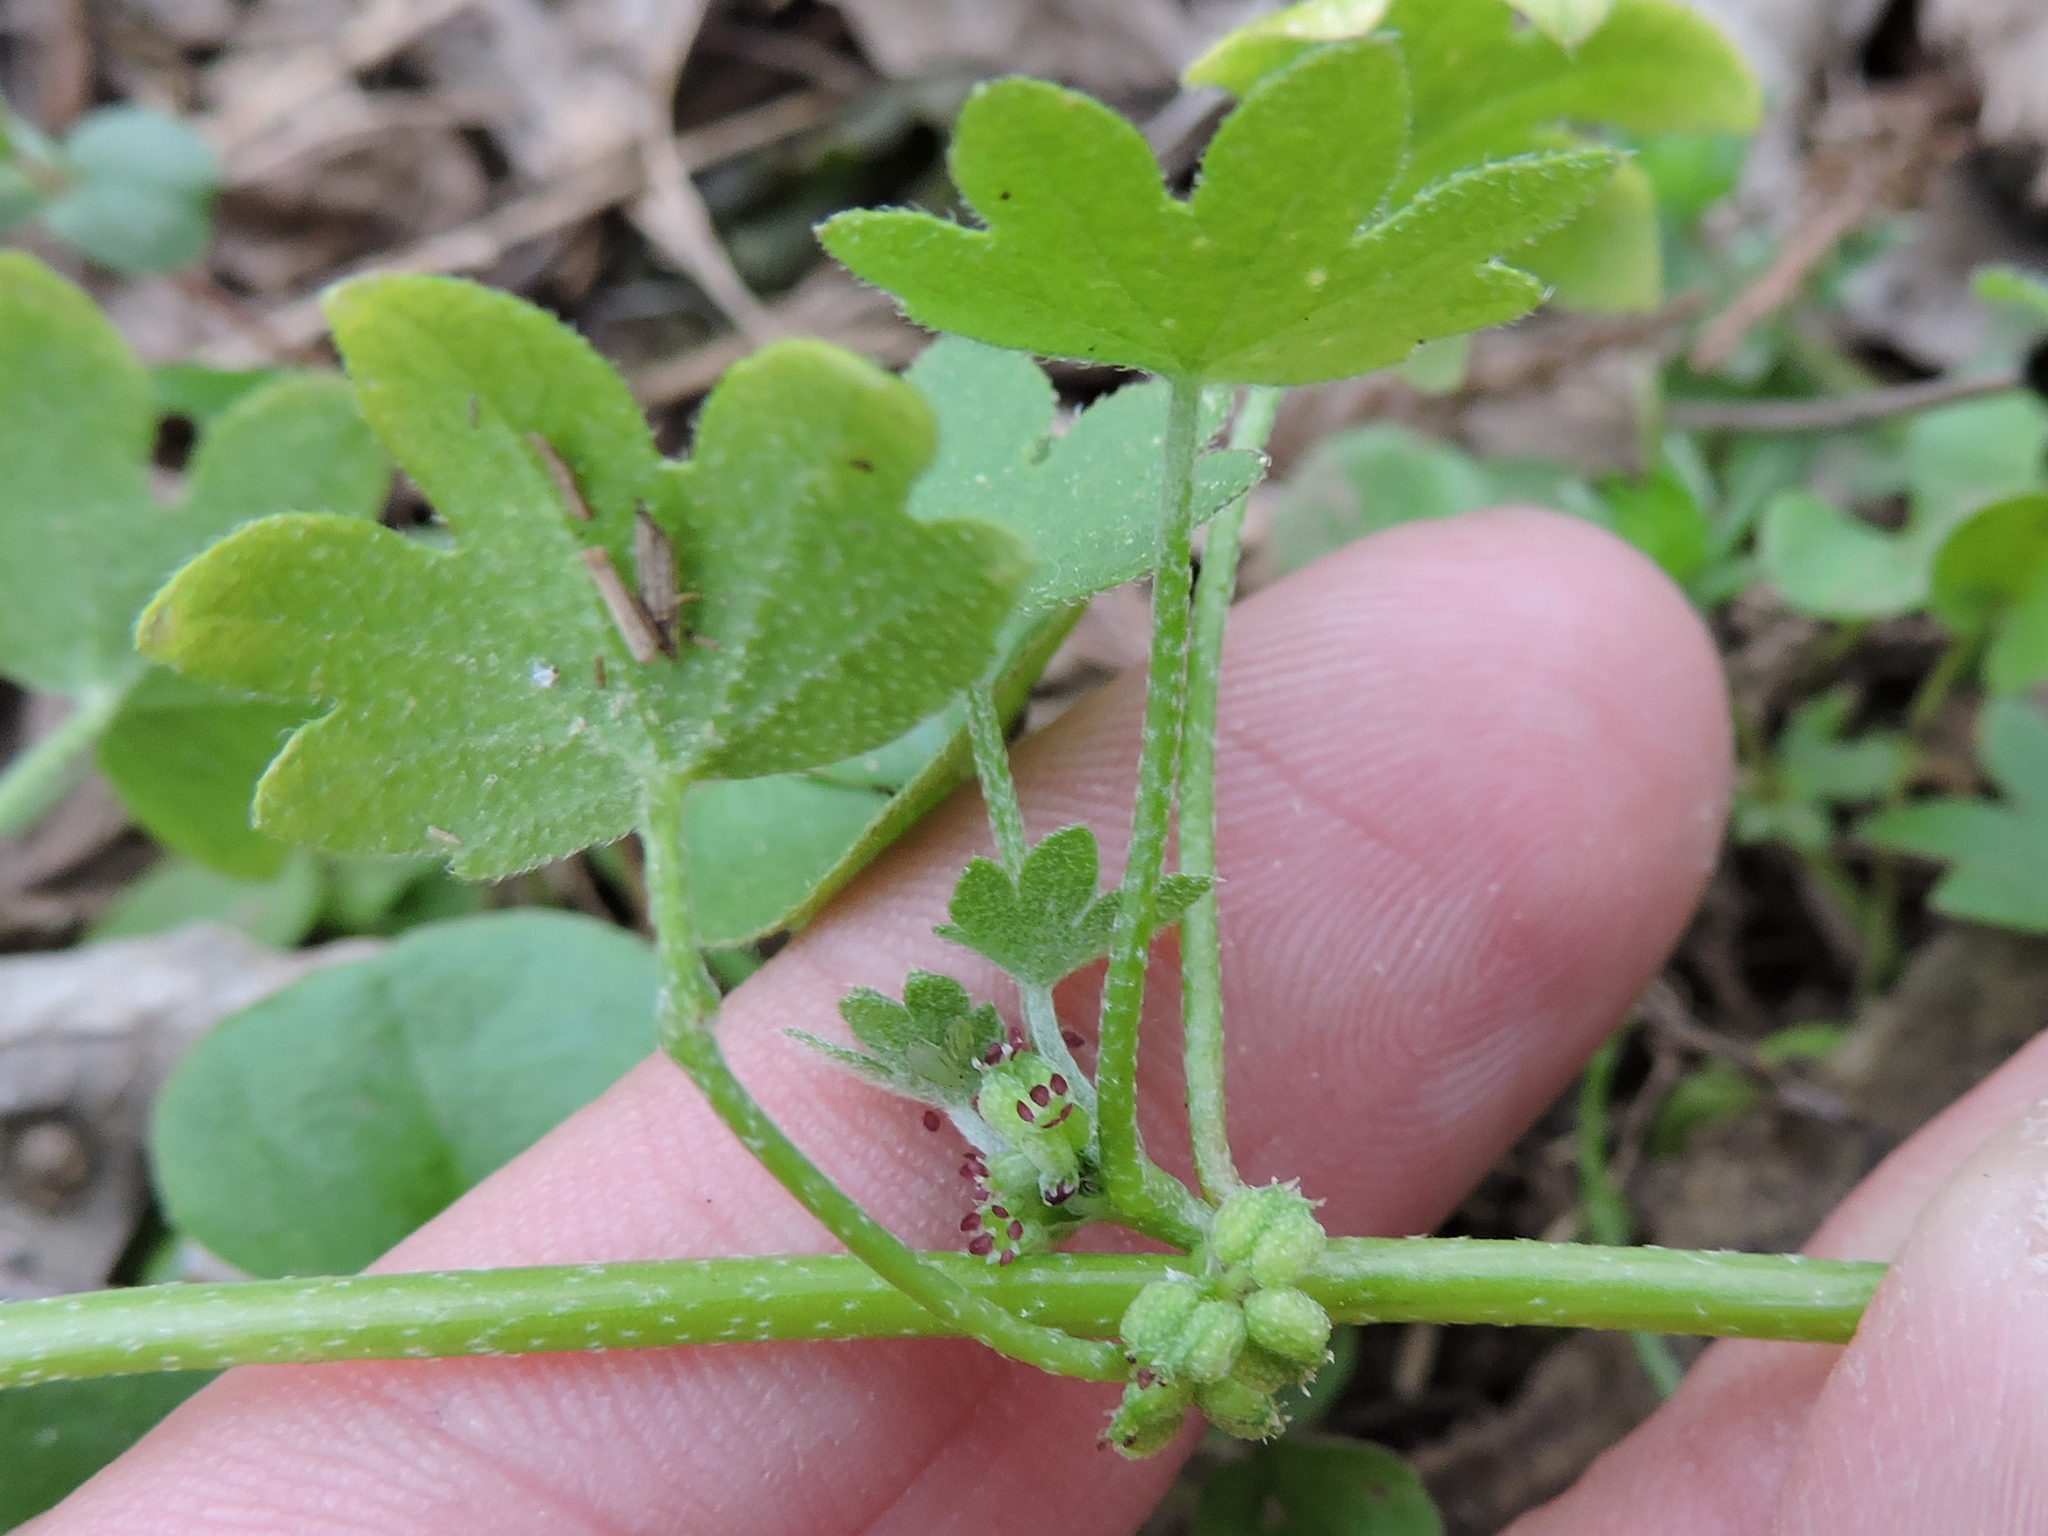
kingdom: Plantae
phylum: Tracheophyta
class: Magnoliopsida
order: Apiales
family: Apiaceae
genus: Bowlesia
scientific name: Bowlesia incana
